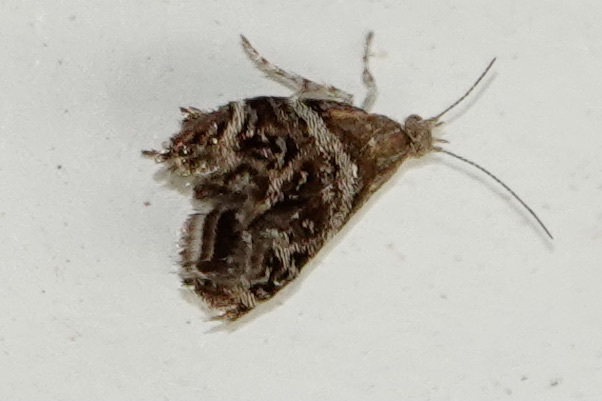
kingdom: Animalia
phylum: Arthropoda
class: Insecta
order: Lepidoptera
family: Choreutidae
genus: Tebenna
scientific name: Tebenna gnaphaliella
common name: Everlasting tebenna moth
